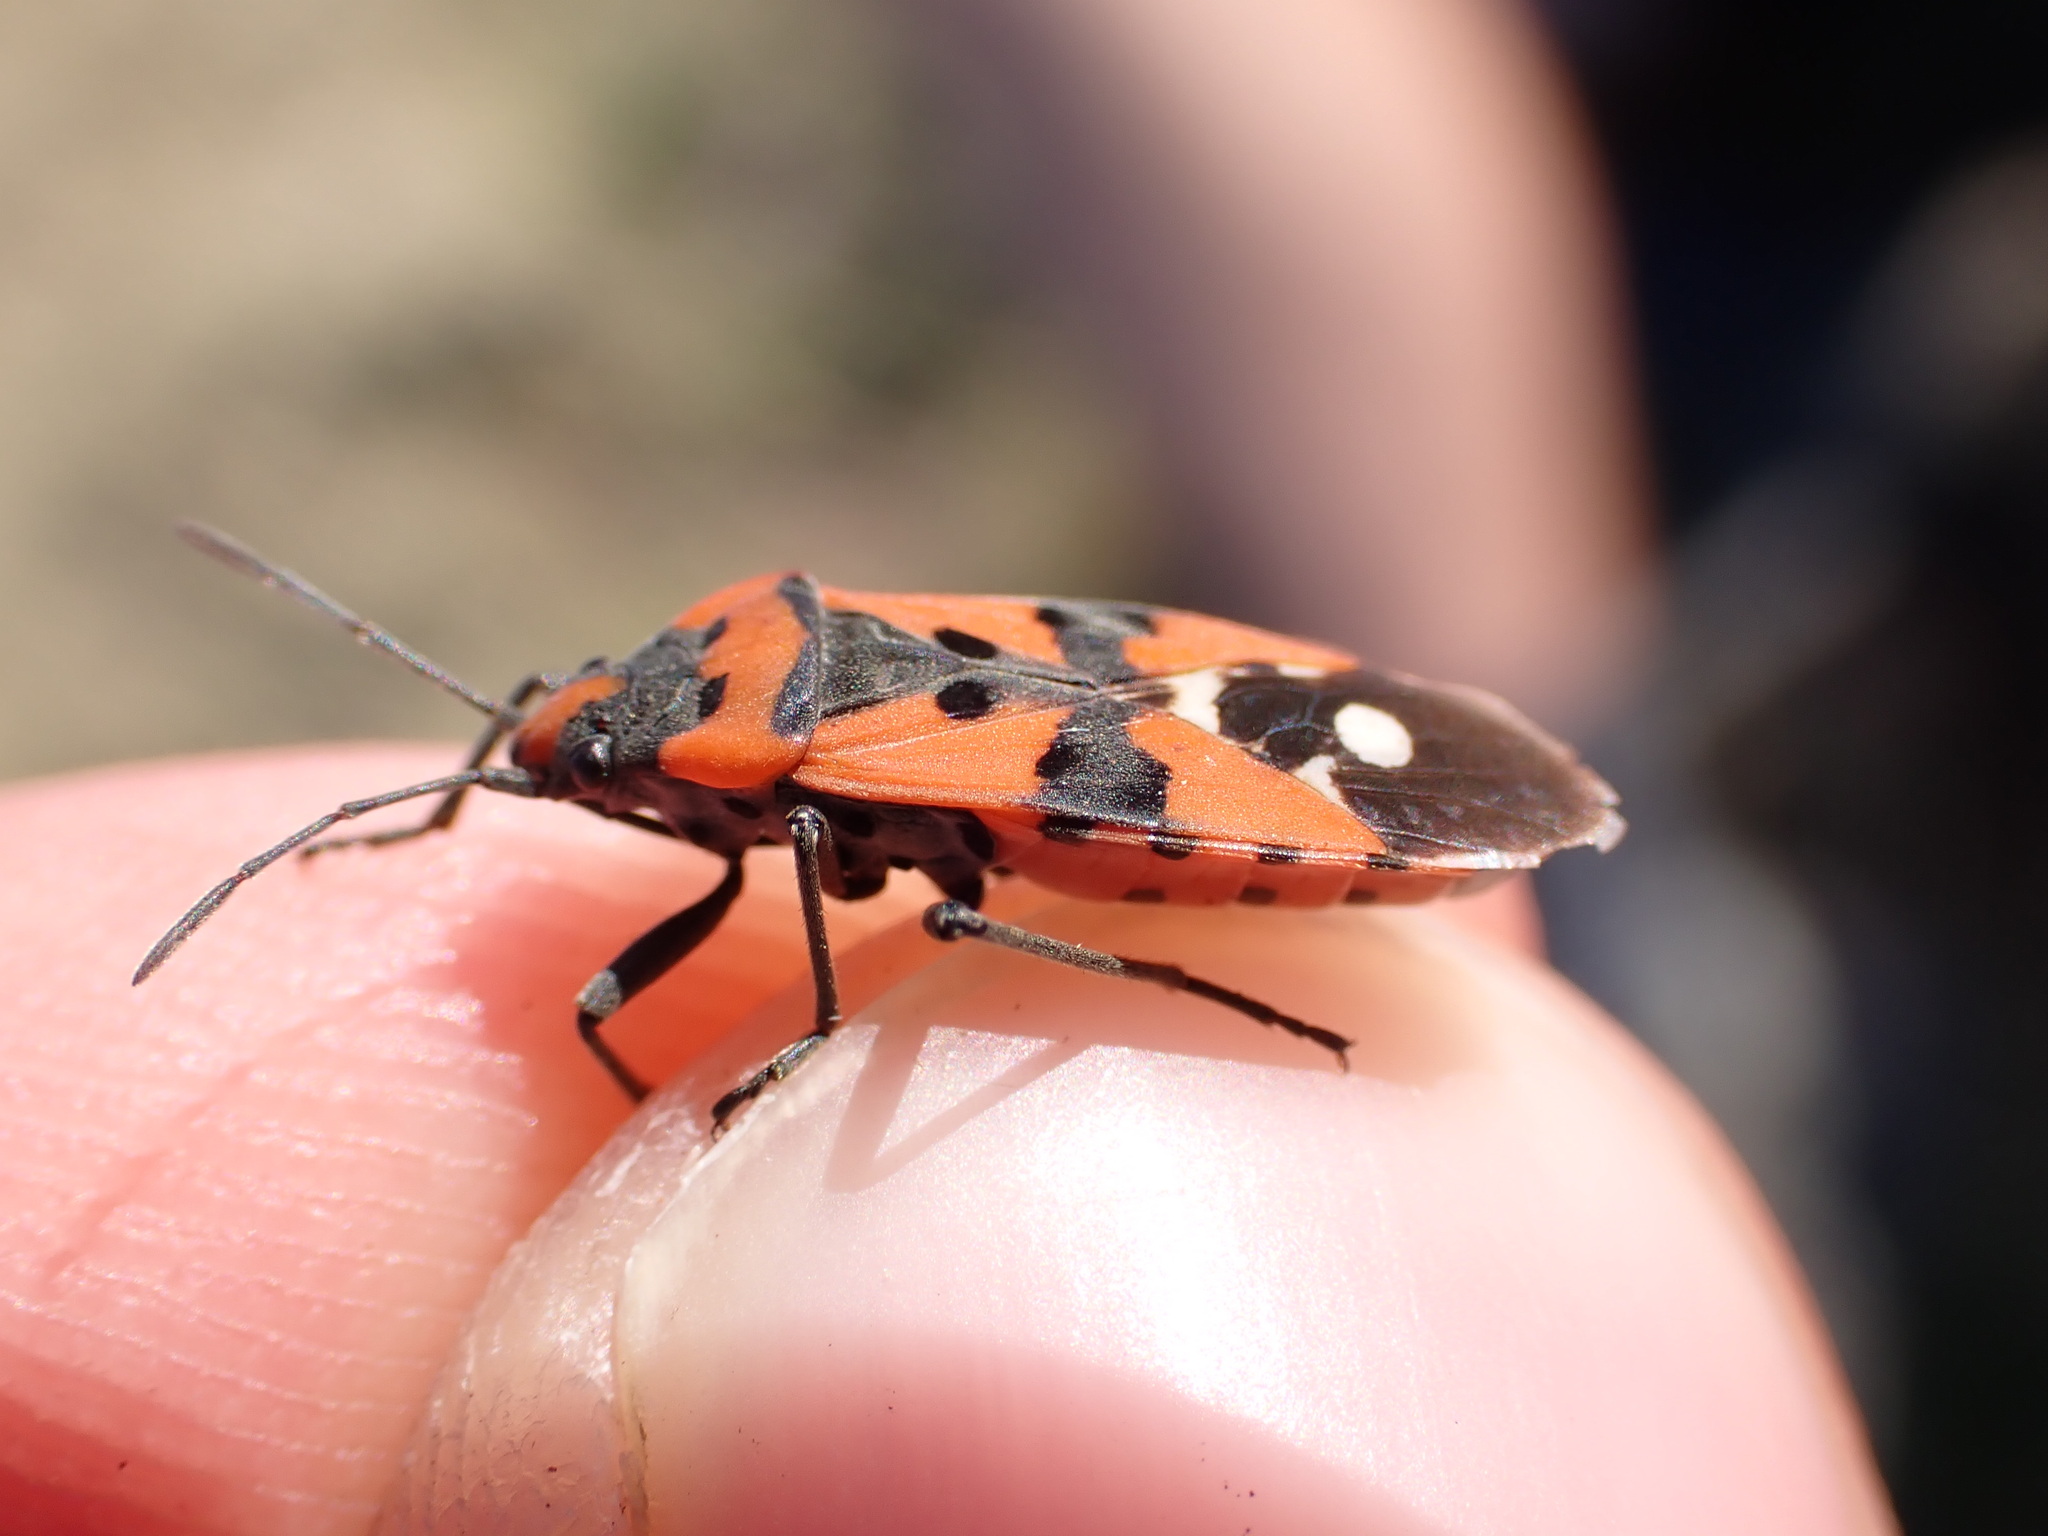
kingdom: Animalia
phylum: Arthropoda
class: Insecta
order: Hemiptera
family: Lygaeidae
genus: Lygaeus
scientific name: Lygaeus equestris
